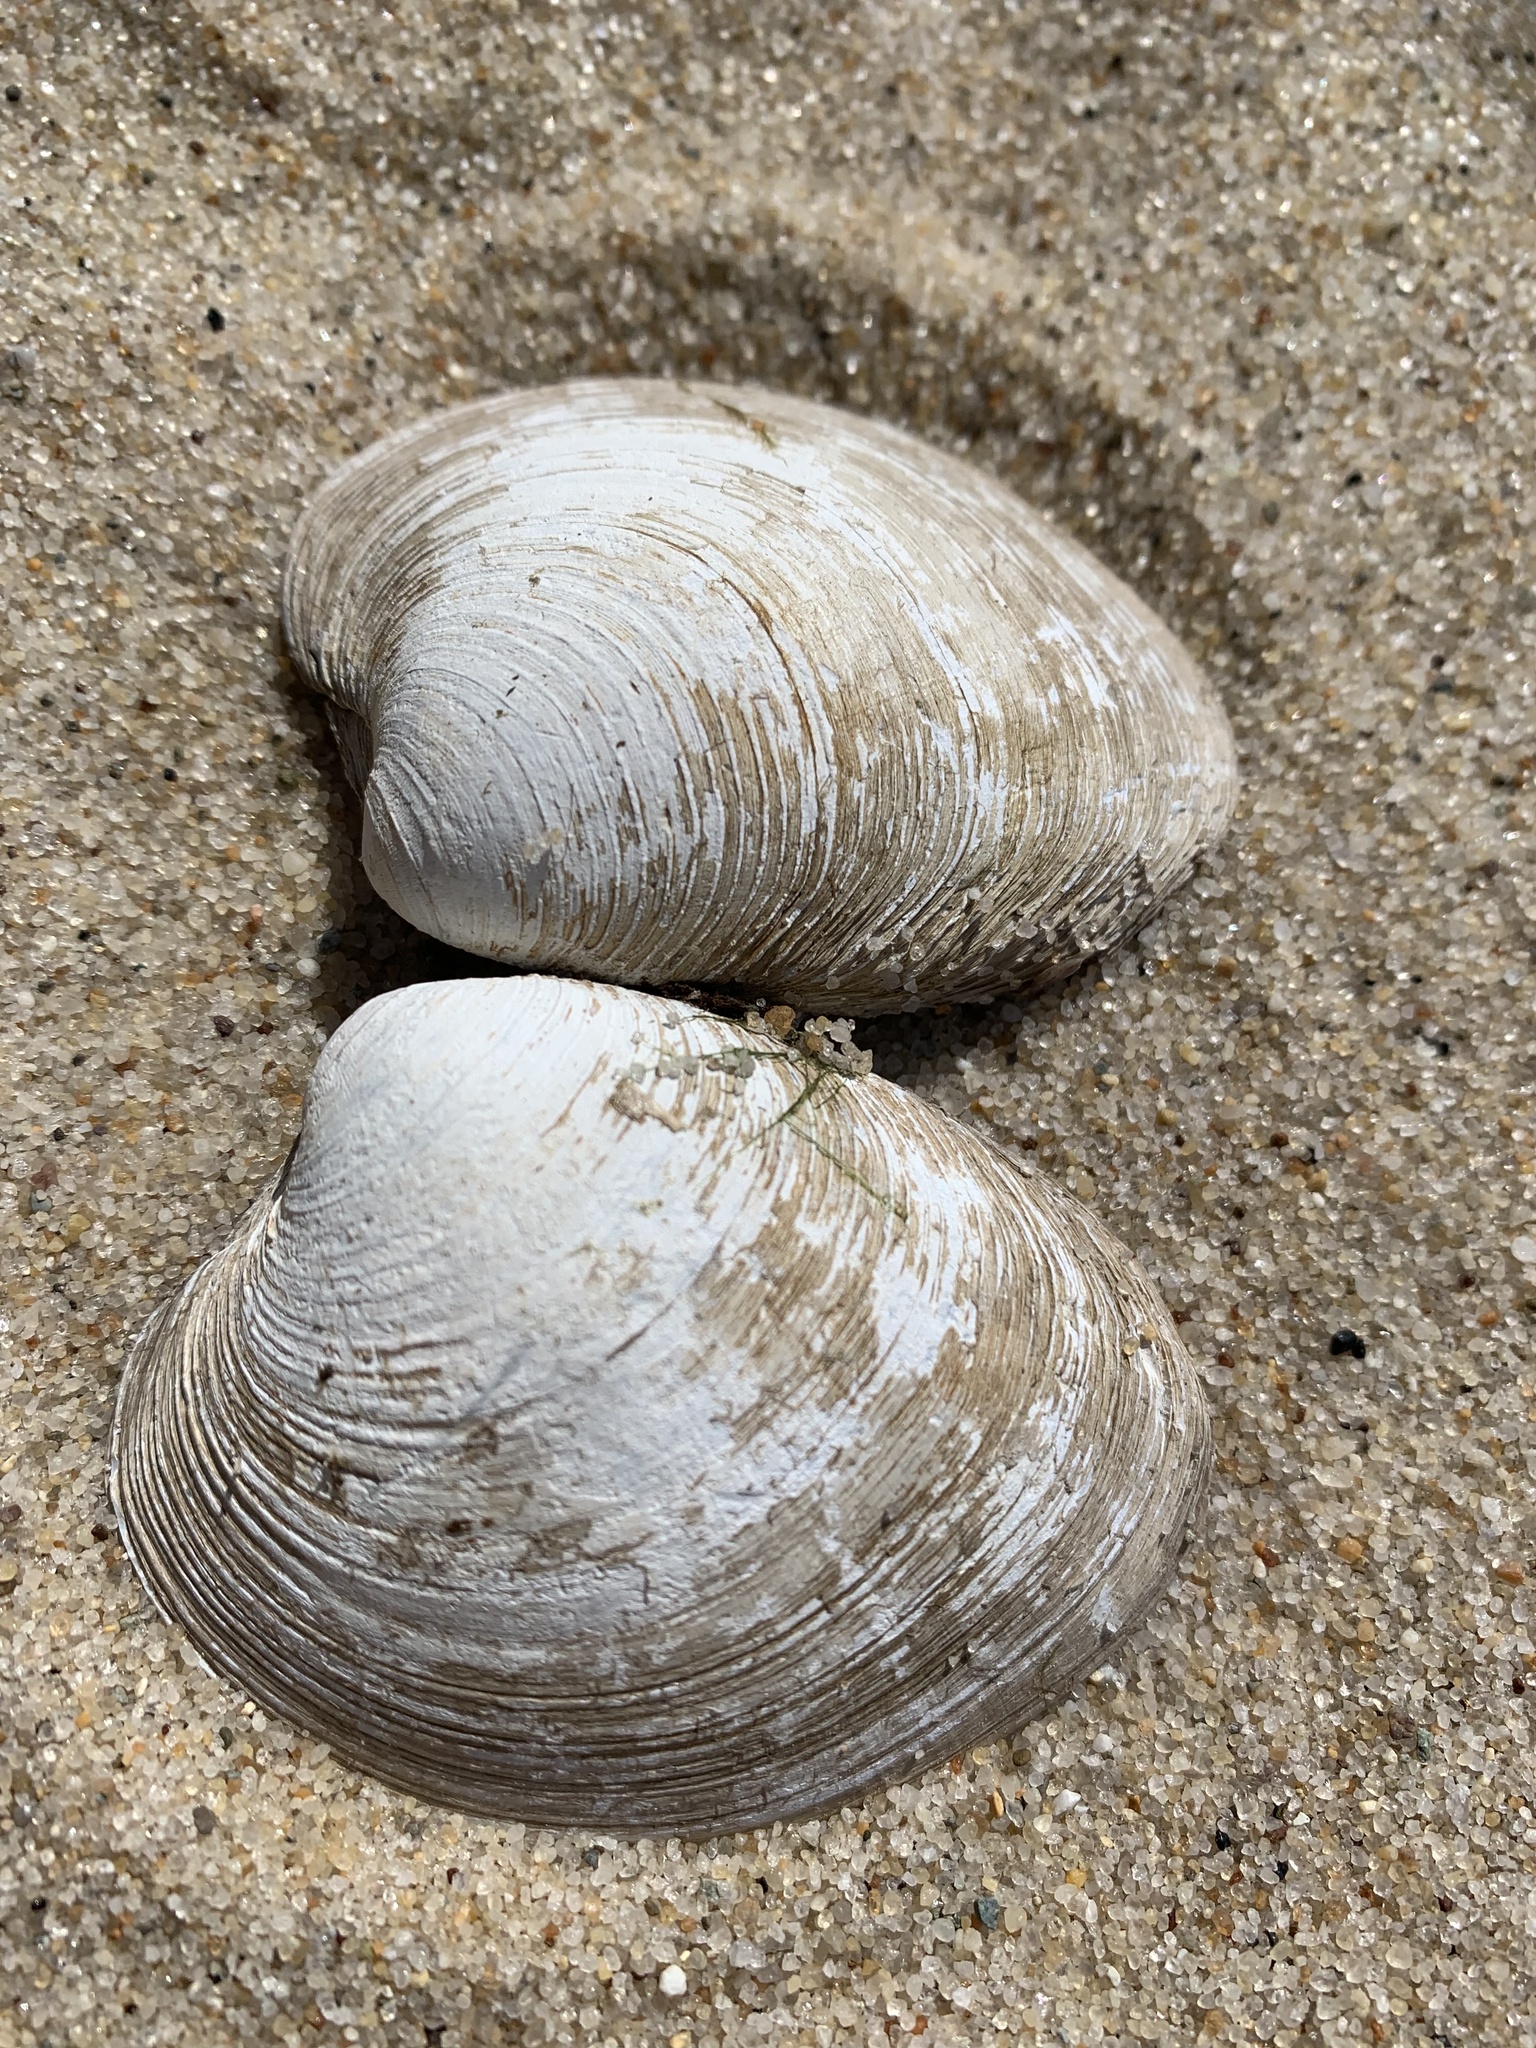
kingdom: Animalia
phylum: Mollusca
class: Bivalvia
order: Venerida
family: Veneridae
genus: Mercenaria
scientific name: Mercenaria mercenaria
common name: American hard-shelled clam
